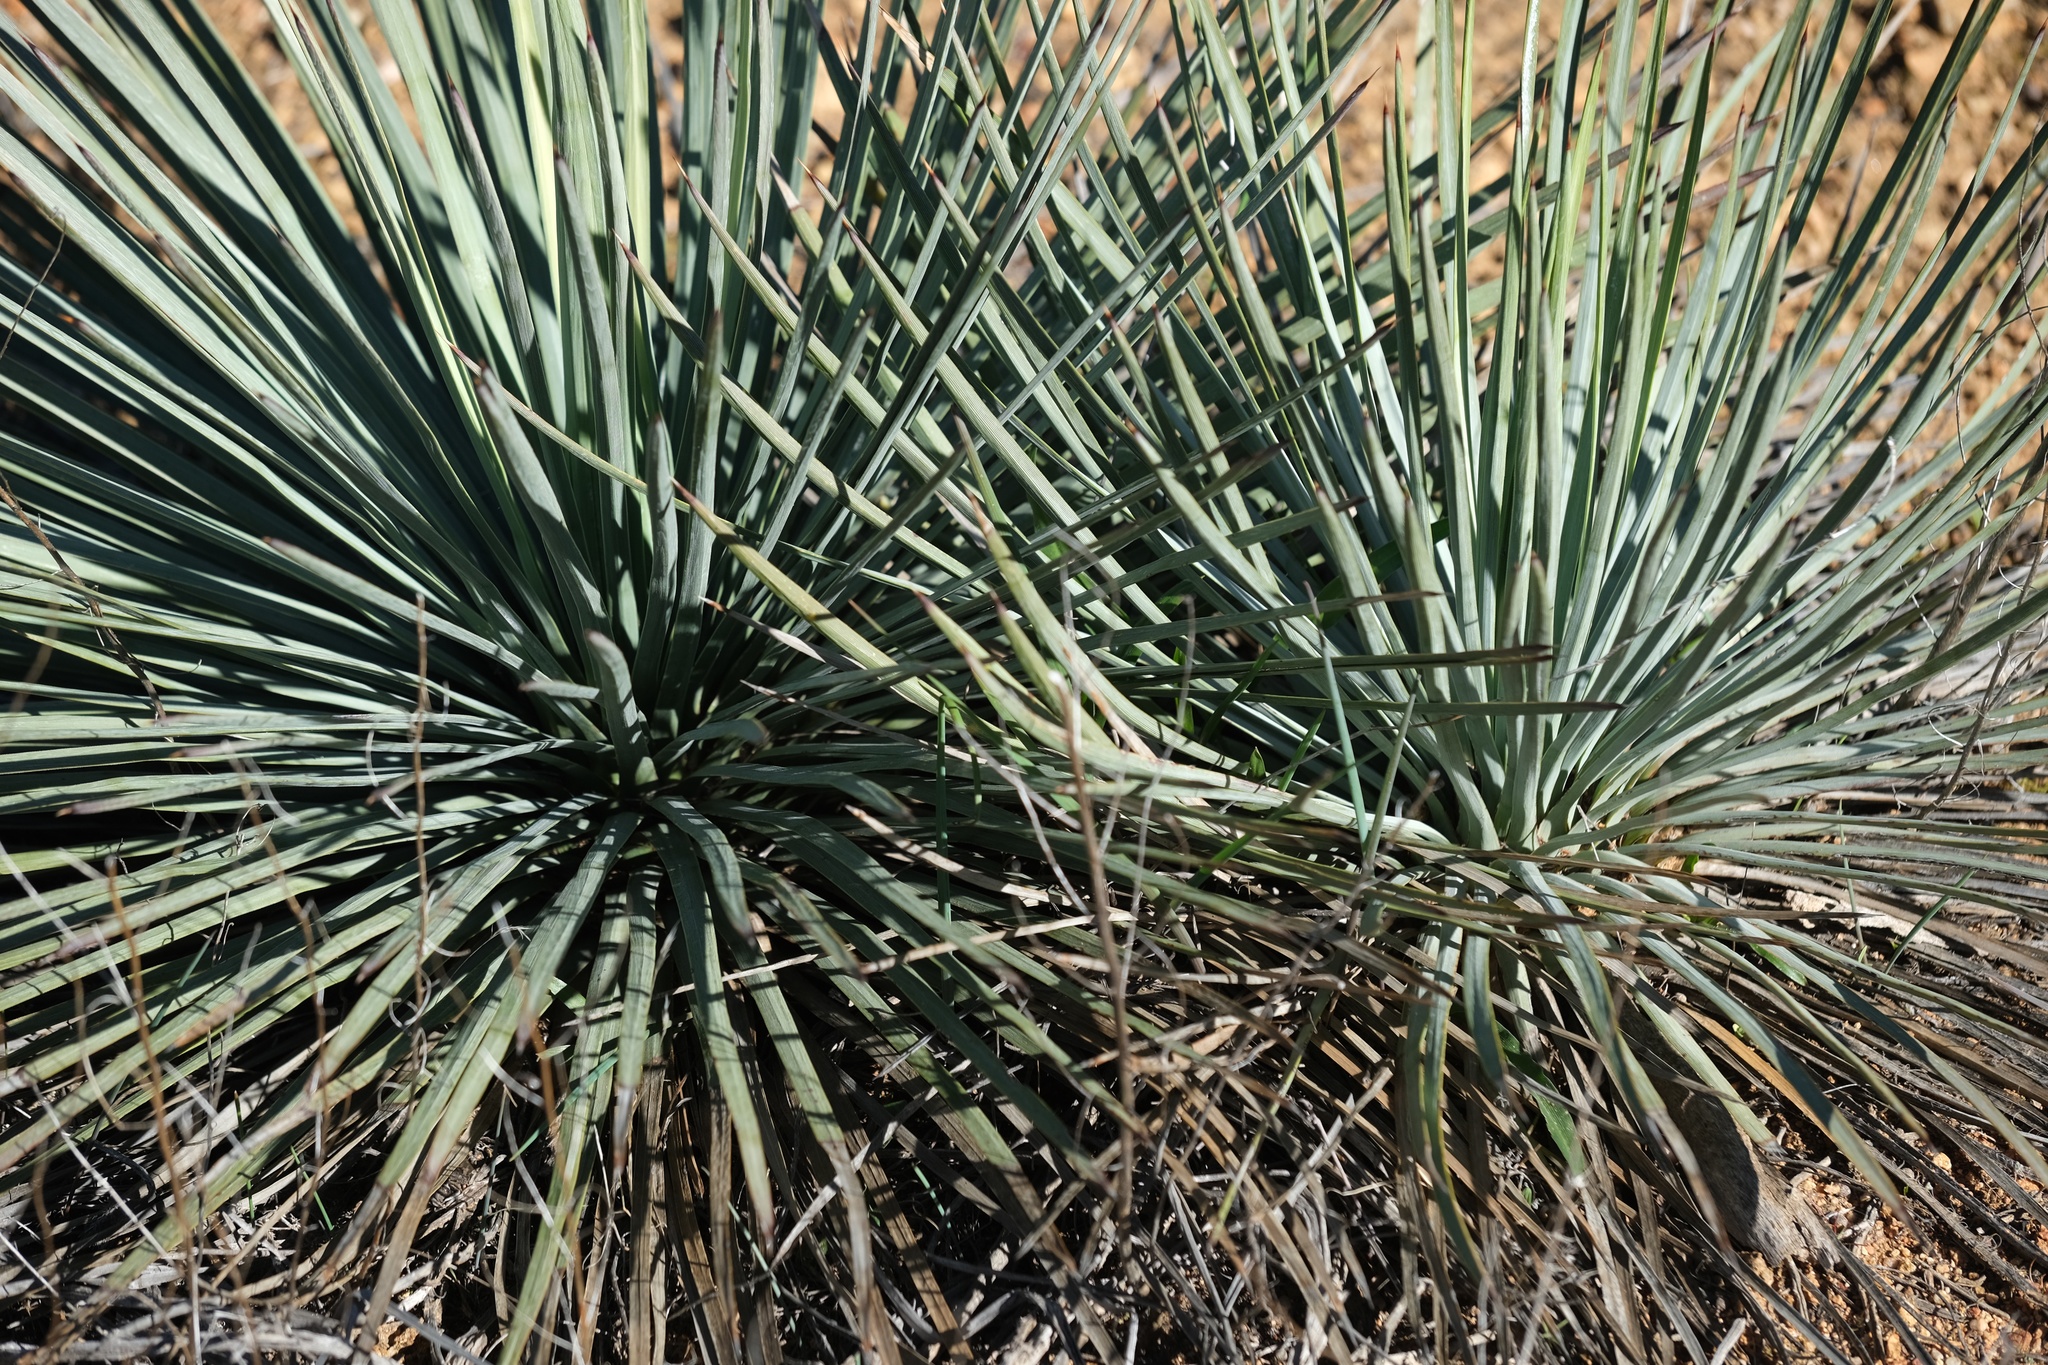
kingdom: Plantae
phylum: Tracheophyta
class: Liliopsida
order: Asparagales
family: Asparagaceae
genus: Hesperoyucca
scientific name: Hesperoyucca whipplei
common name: Our lord's-candle
